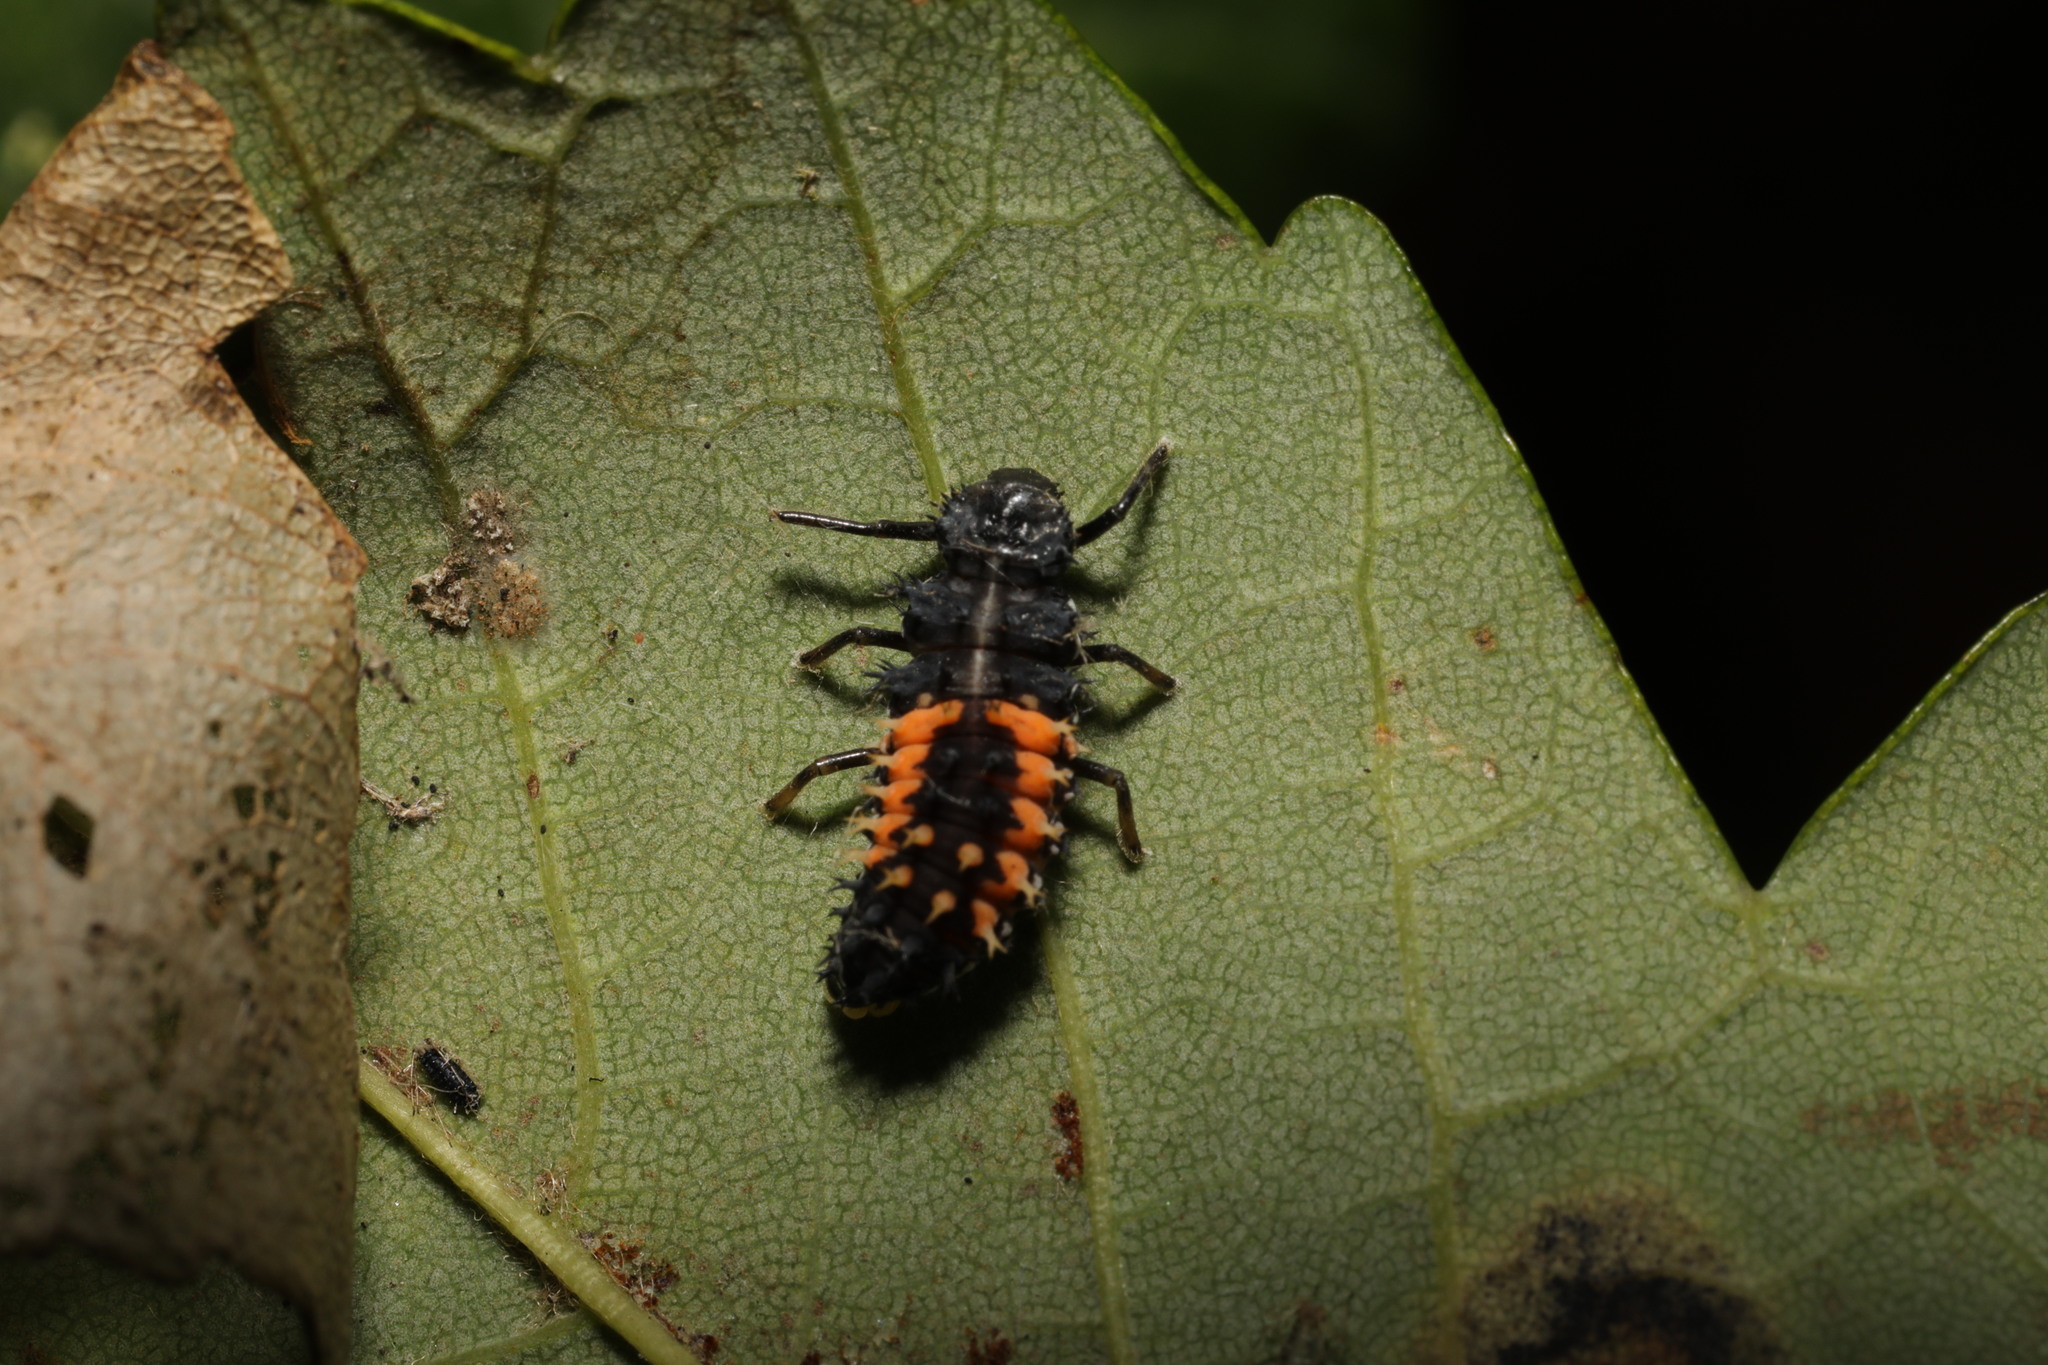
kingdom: Animalia
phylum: Arthropoda
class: Insecta
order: Coleoptera
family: Coccinellidae
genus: Harmonia
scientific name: Harmonia axyridis
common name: Harlequin ladybird
